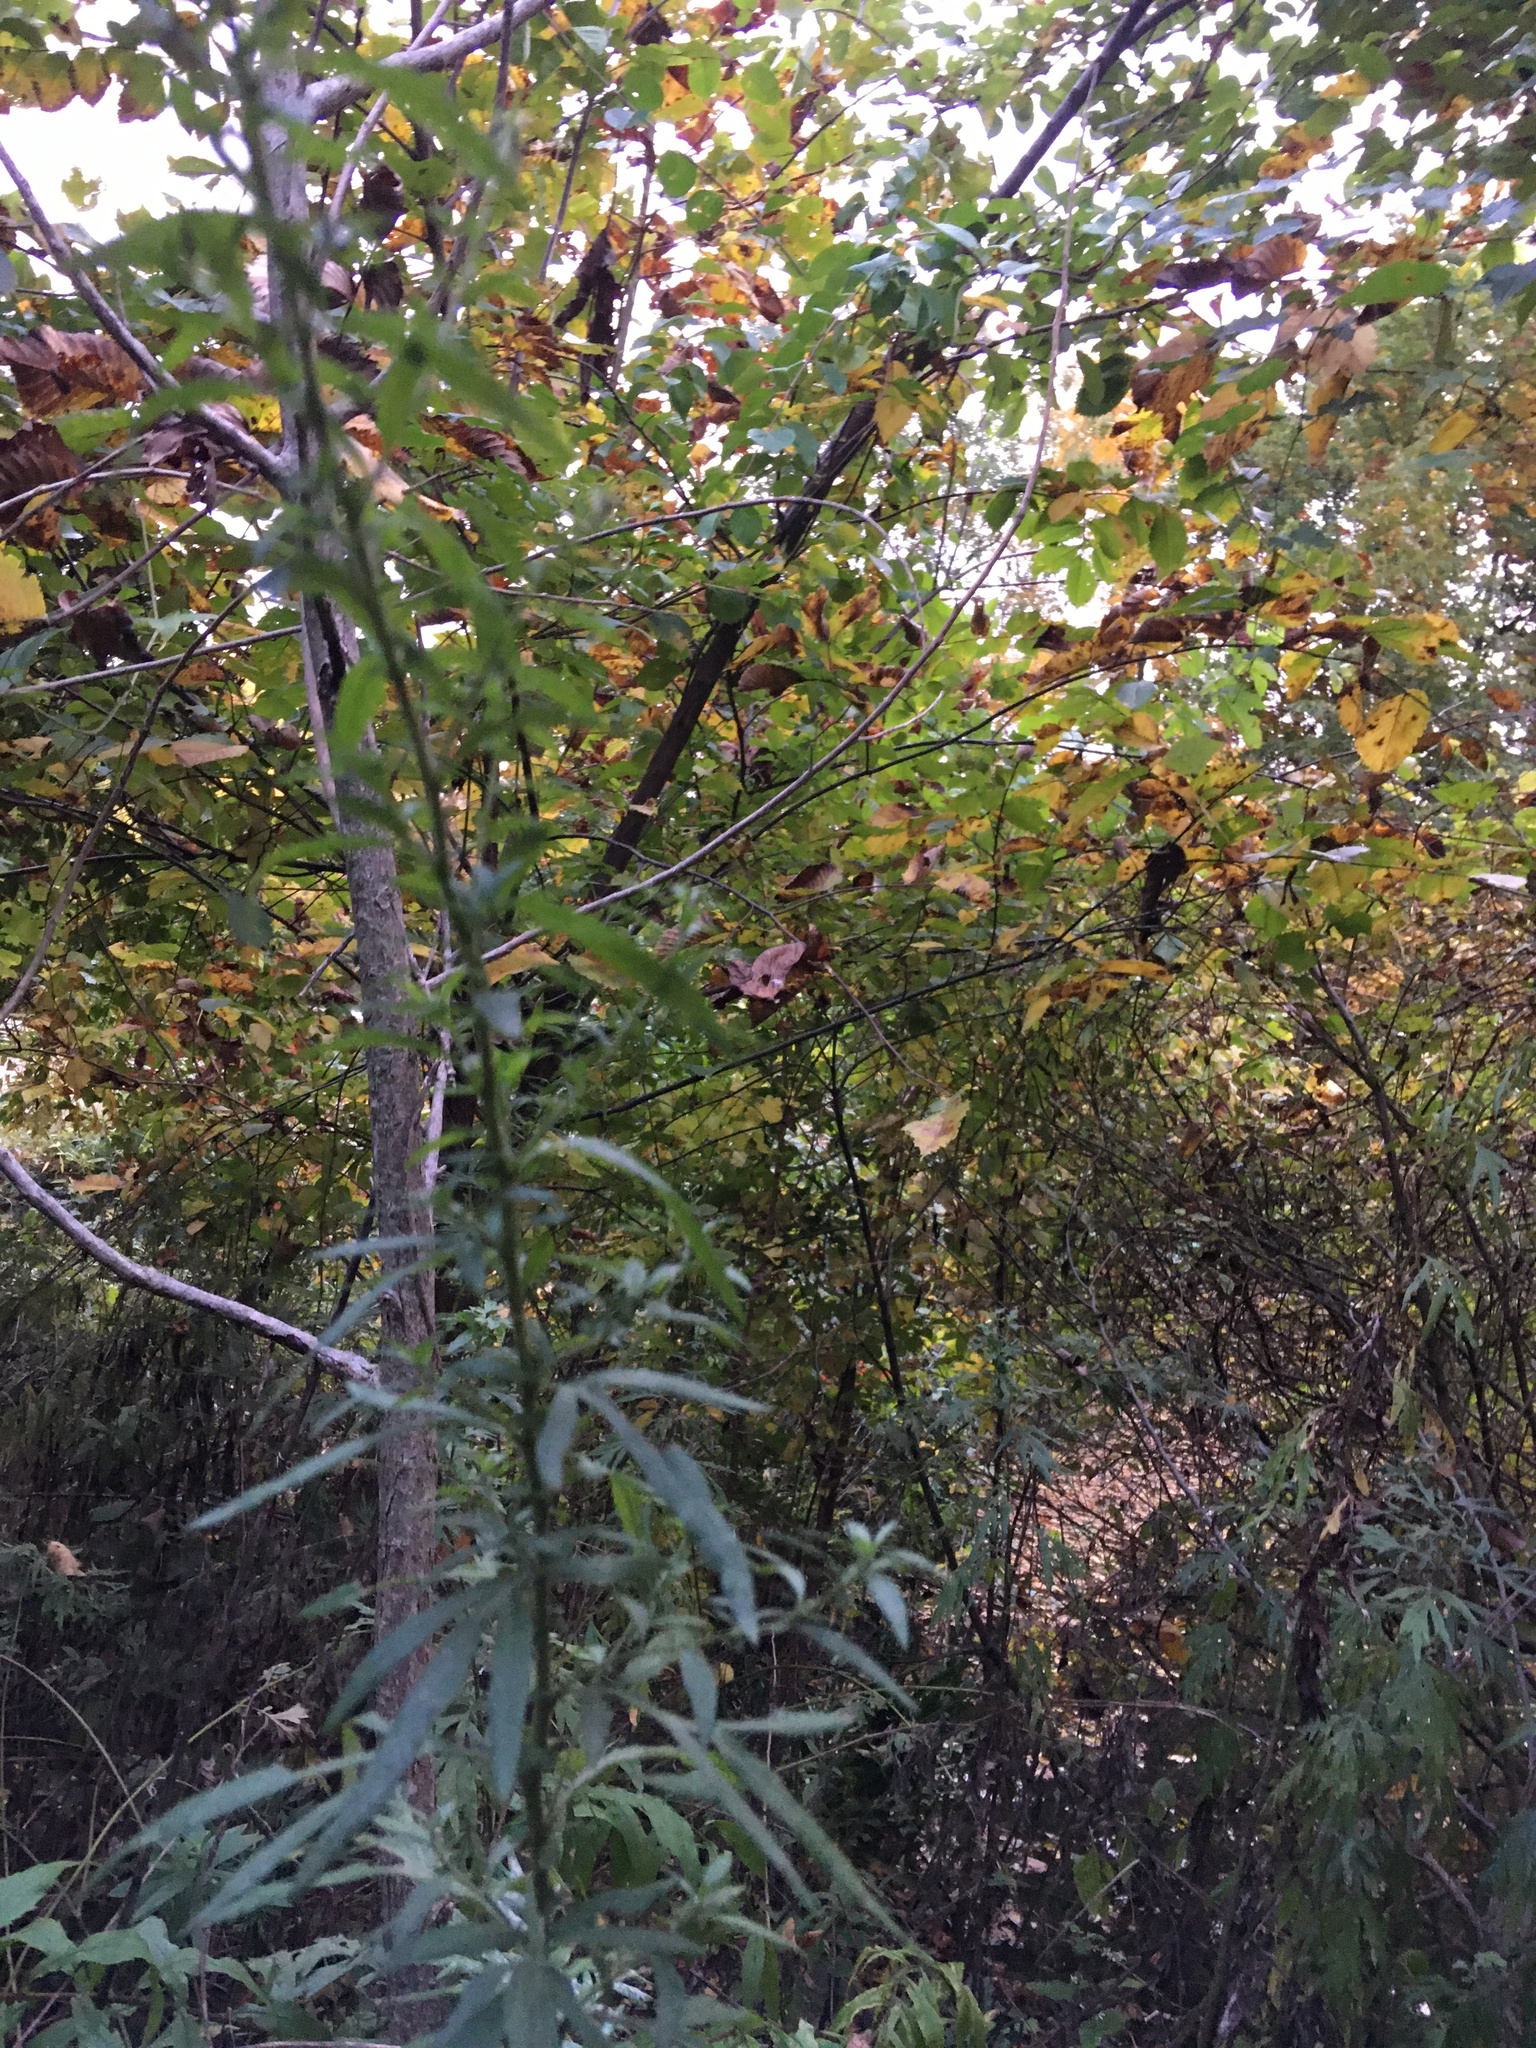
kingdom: Plantae
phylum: Tracheophyta
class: Magnoliopsida
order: Asterales
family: Asteraceae
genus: Artemisia
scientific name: Artemisia vulgaris
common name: Mugwort
